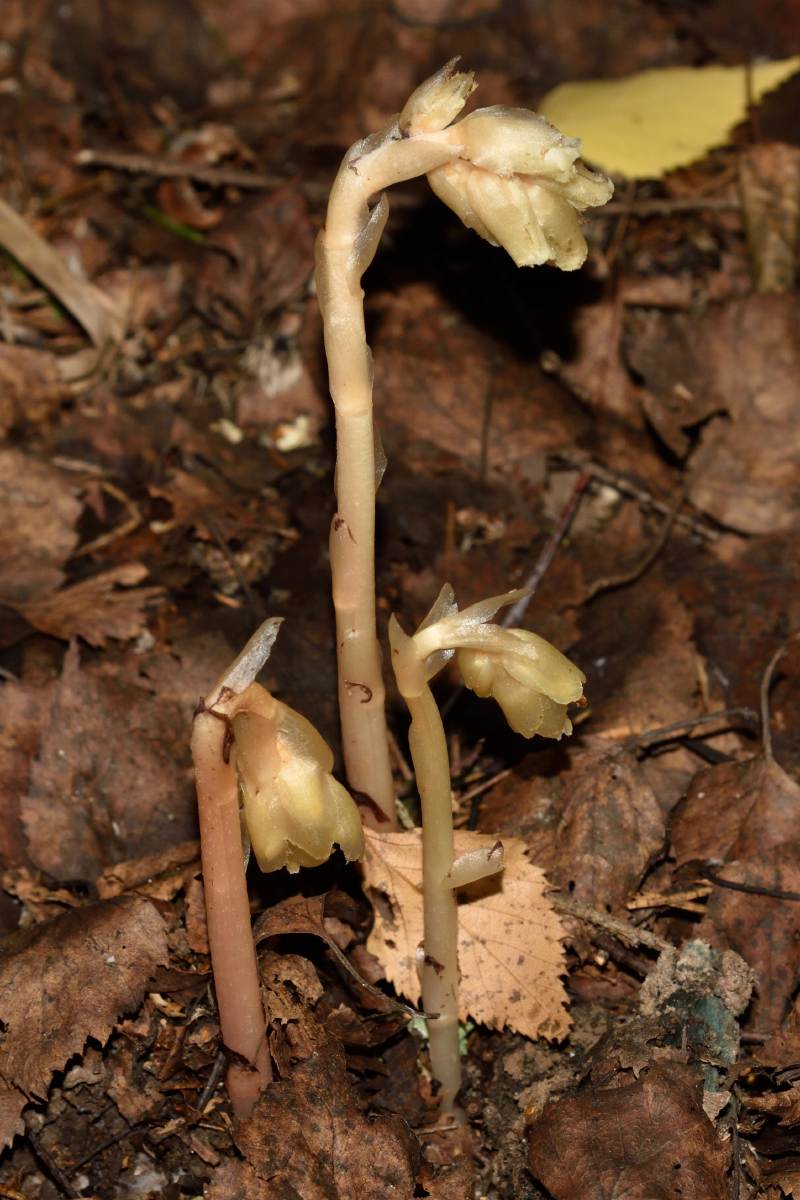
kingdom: Plantae
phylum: Tracheophyta
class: Magnoliopsida
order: Ericales
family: Ericaceae
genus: Hypopitys
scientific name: Hypopitys monotropa
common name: Yellow bird's-nest
